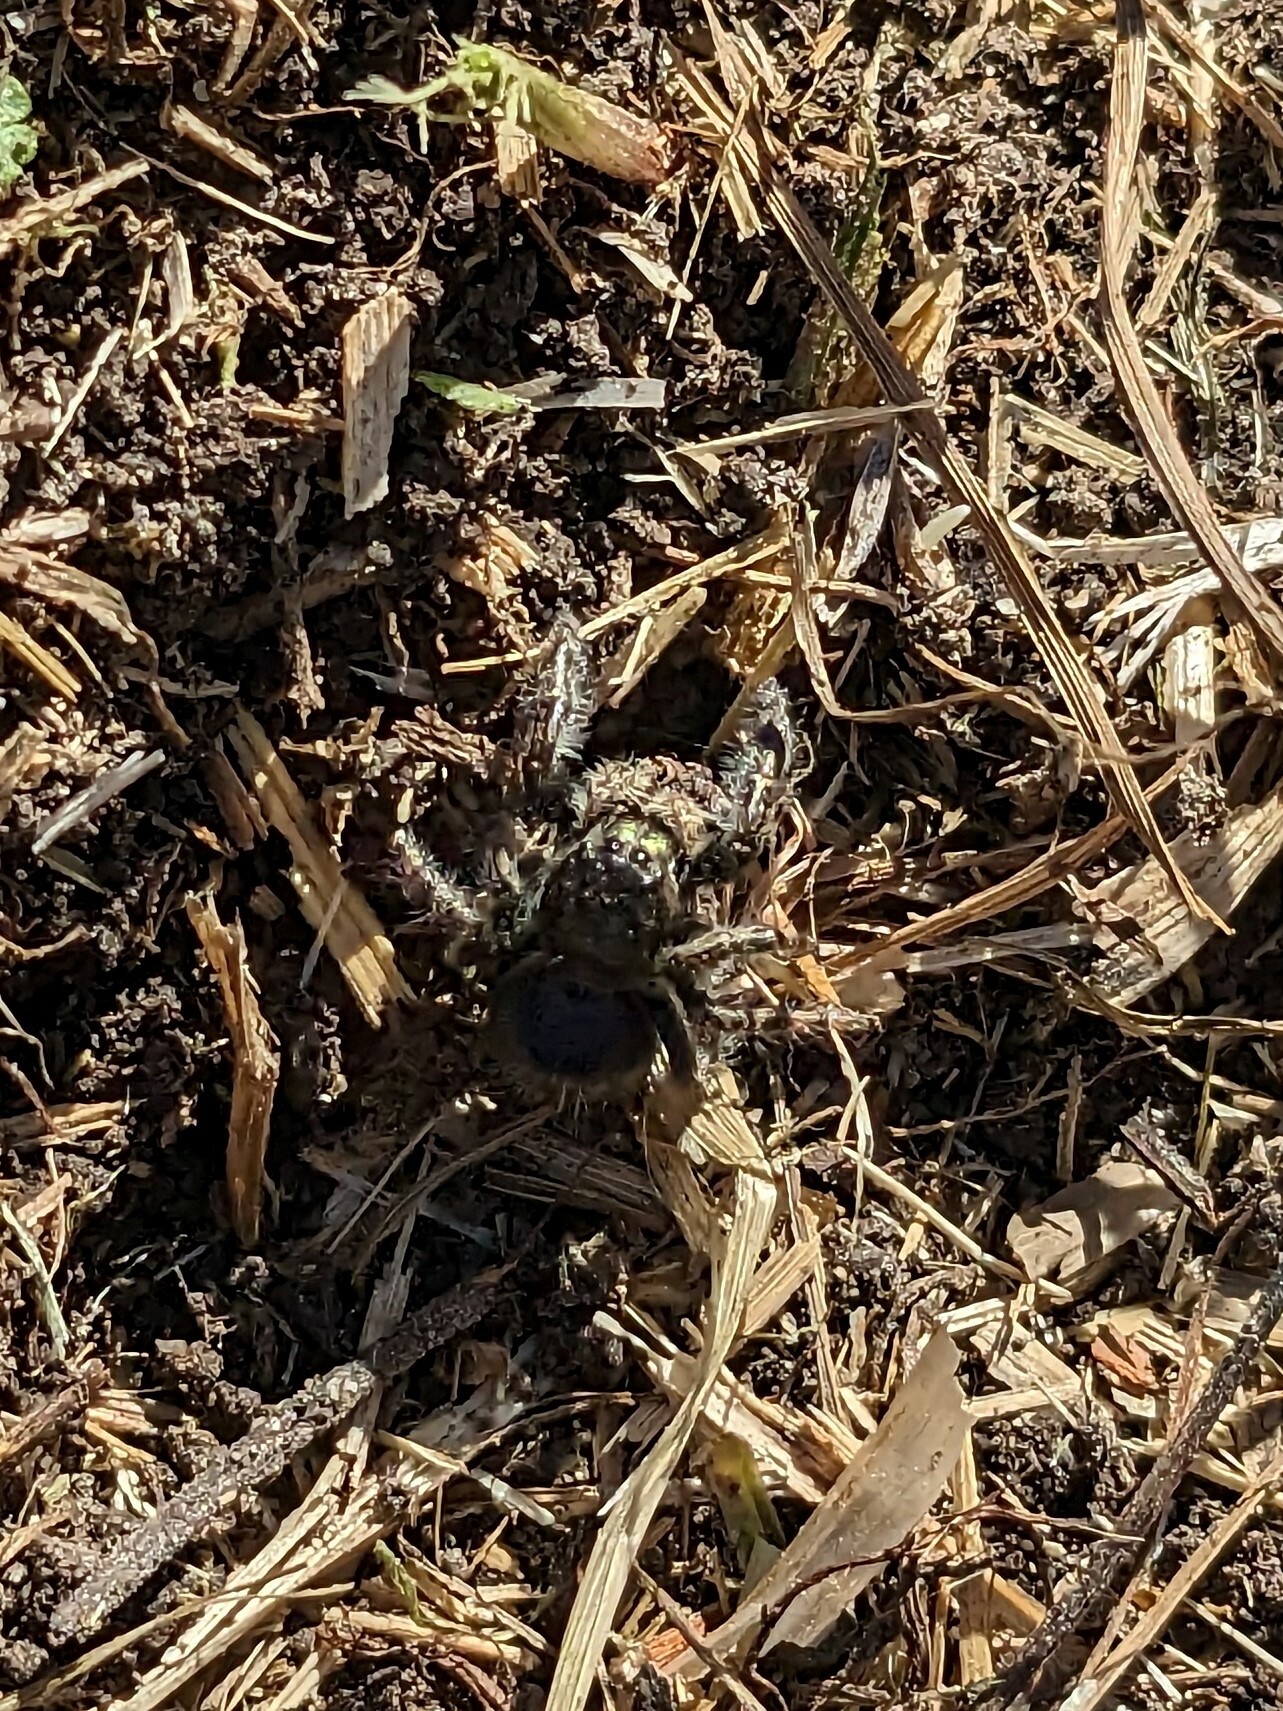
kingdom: Animalia
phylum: Arthropoda
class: Arachnida
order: Araneae
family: Salticidae
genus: Phidippus
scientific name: Phidippus audax
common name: Bold jumper
